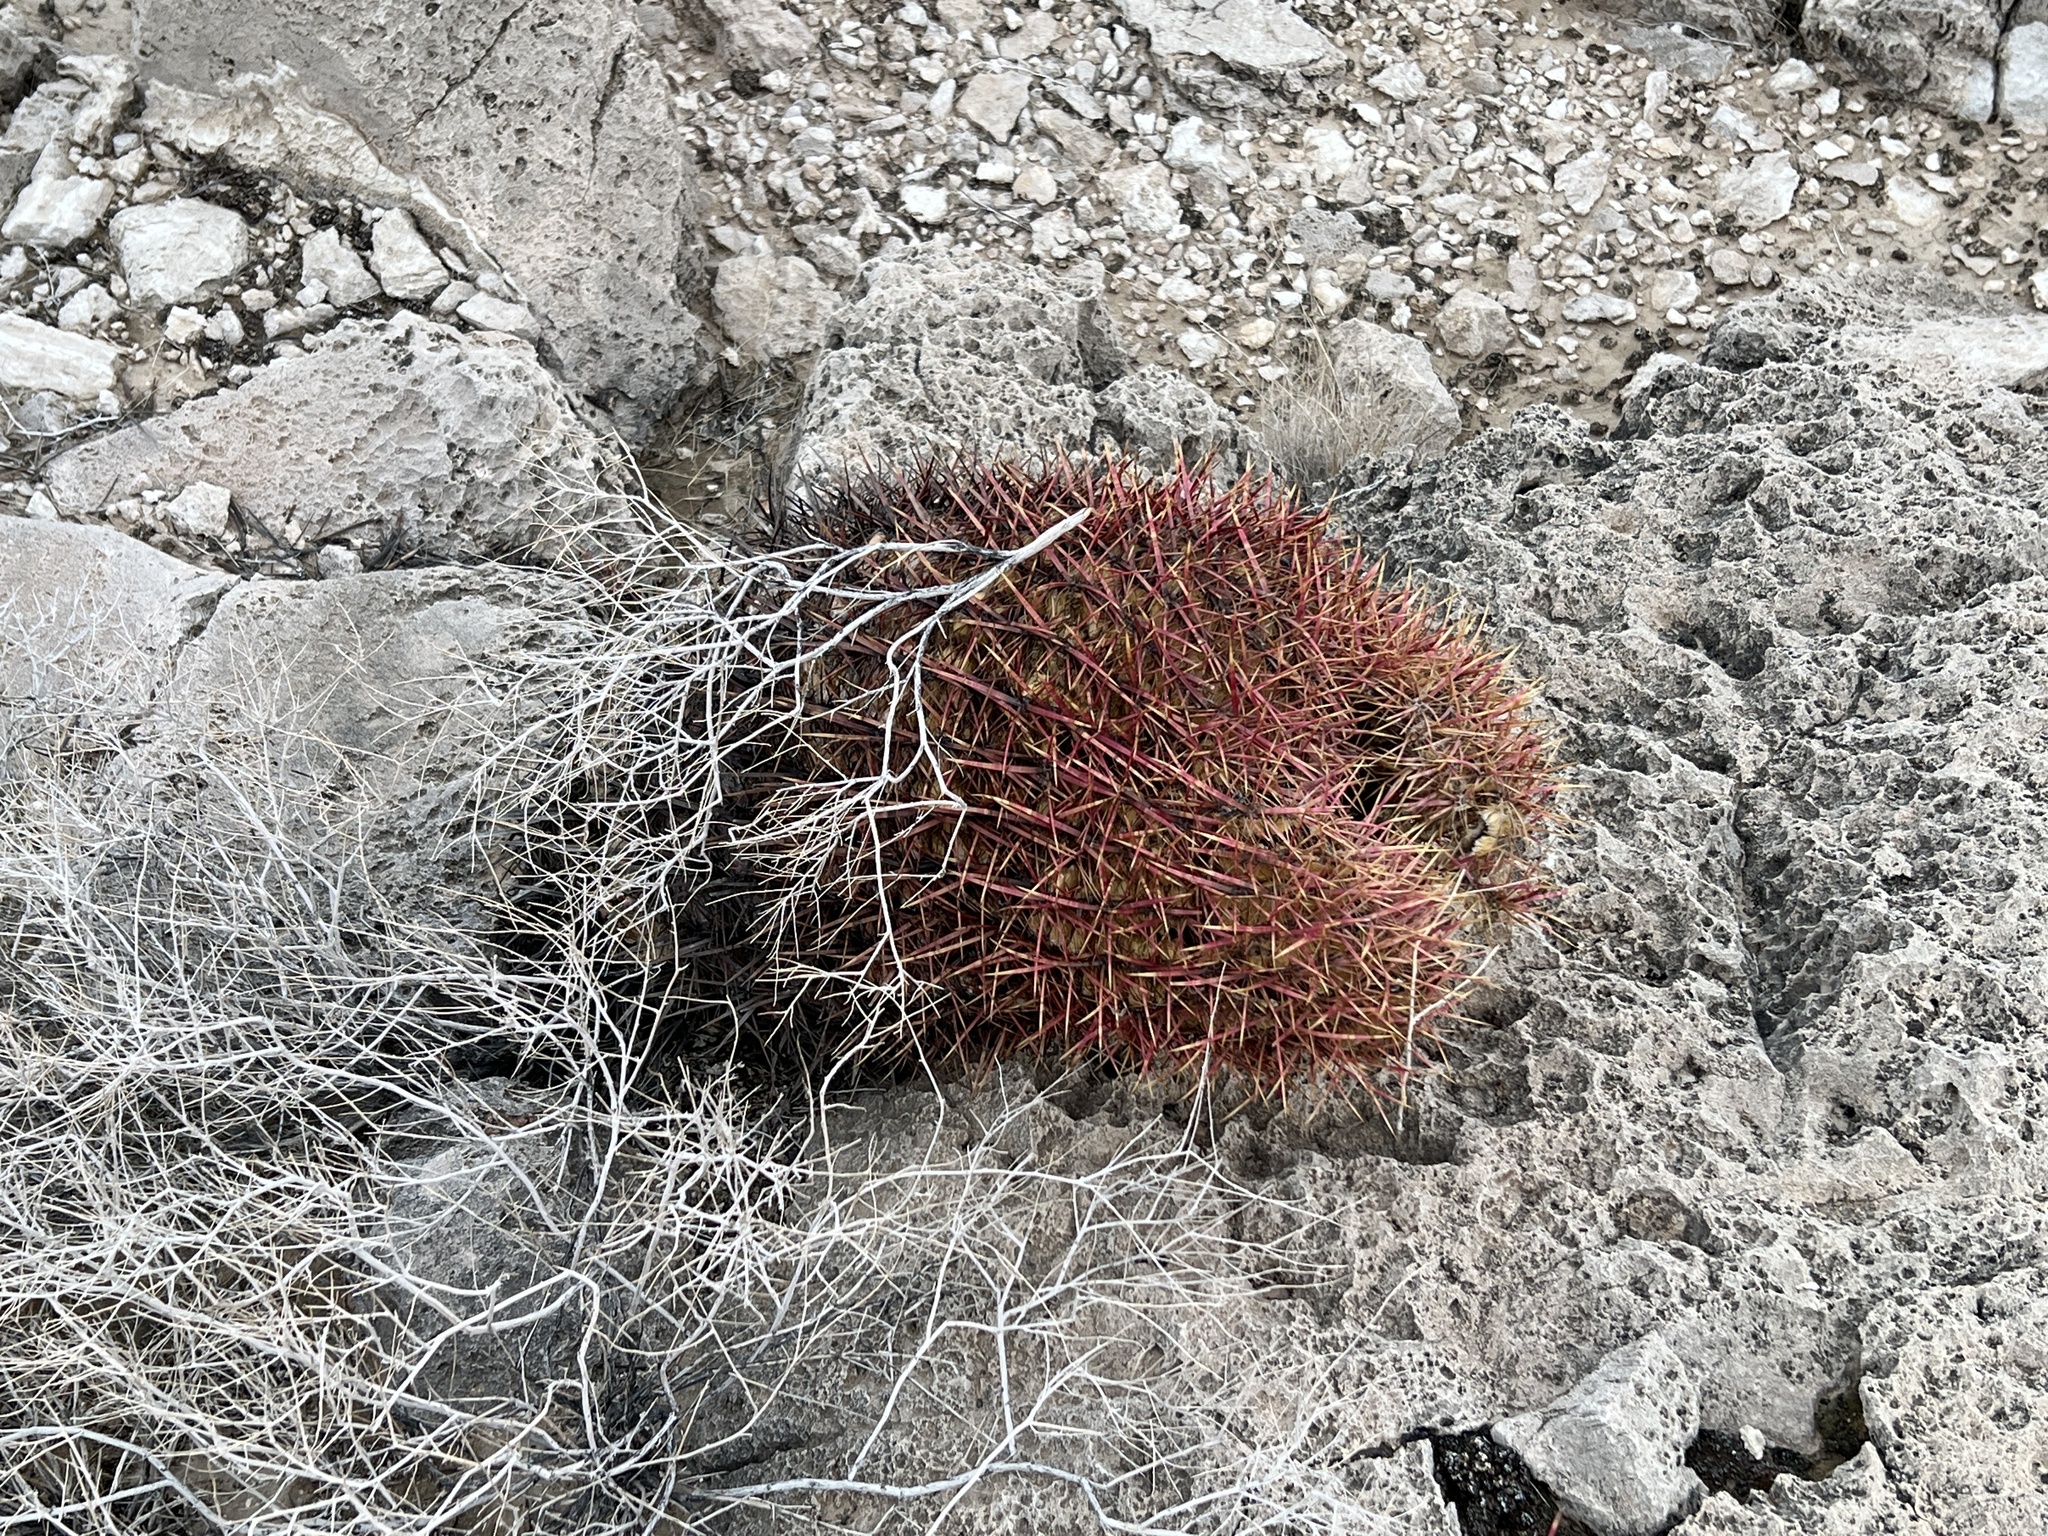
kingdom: Plantae
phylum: Tracheophyta
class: Magnoliopsida
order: Caryophyllales
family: Cactaceae
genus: Ferocactus
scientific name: Ferocactus cylindraceus
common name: California barrel cactus
